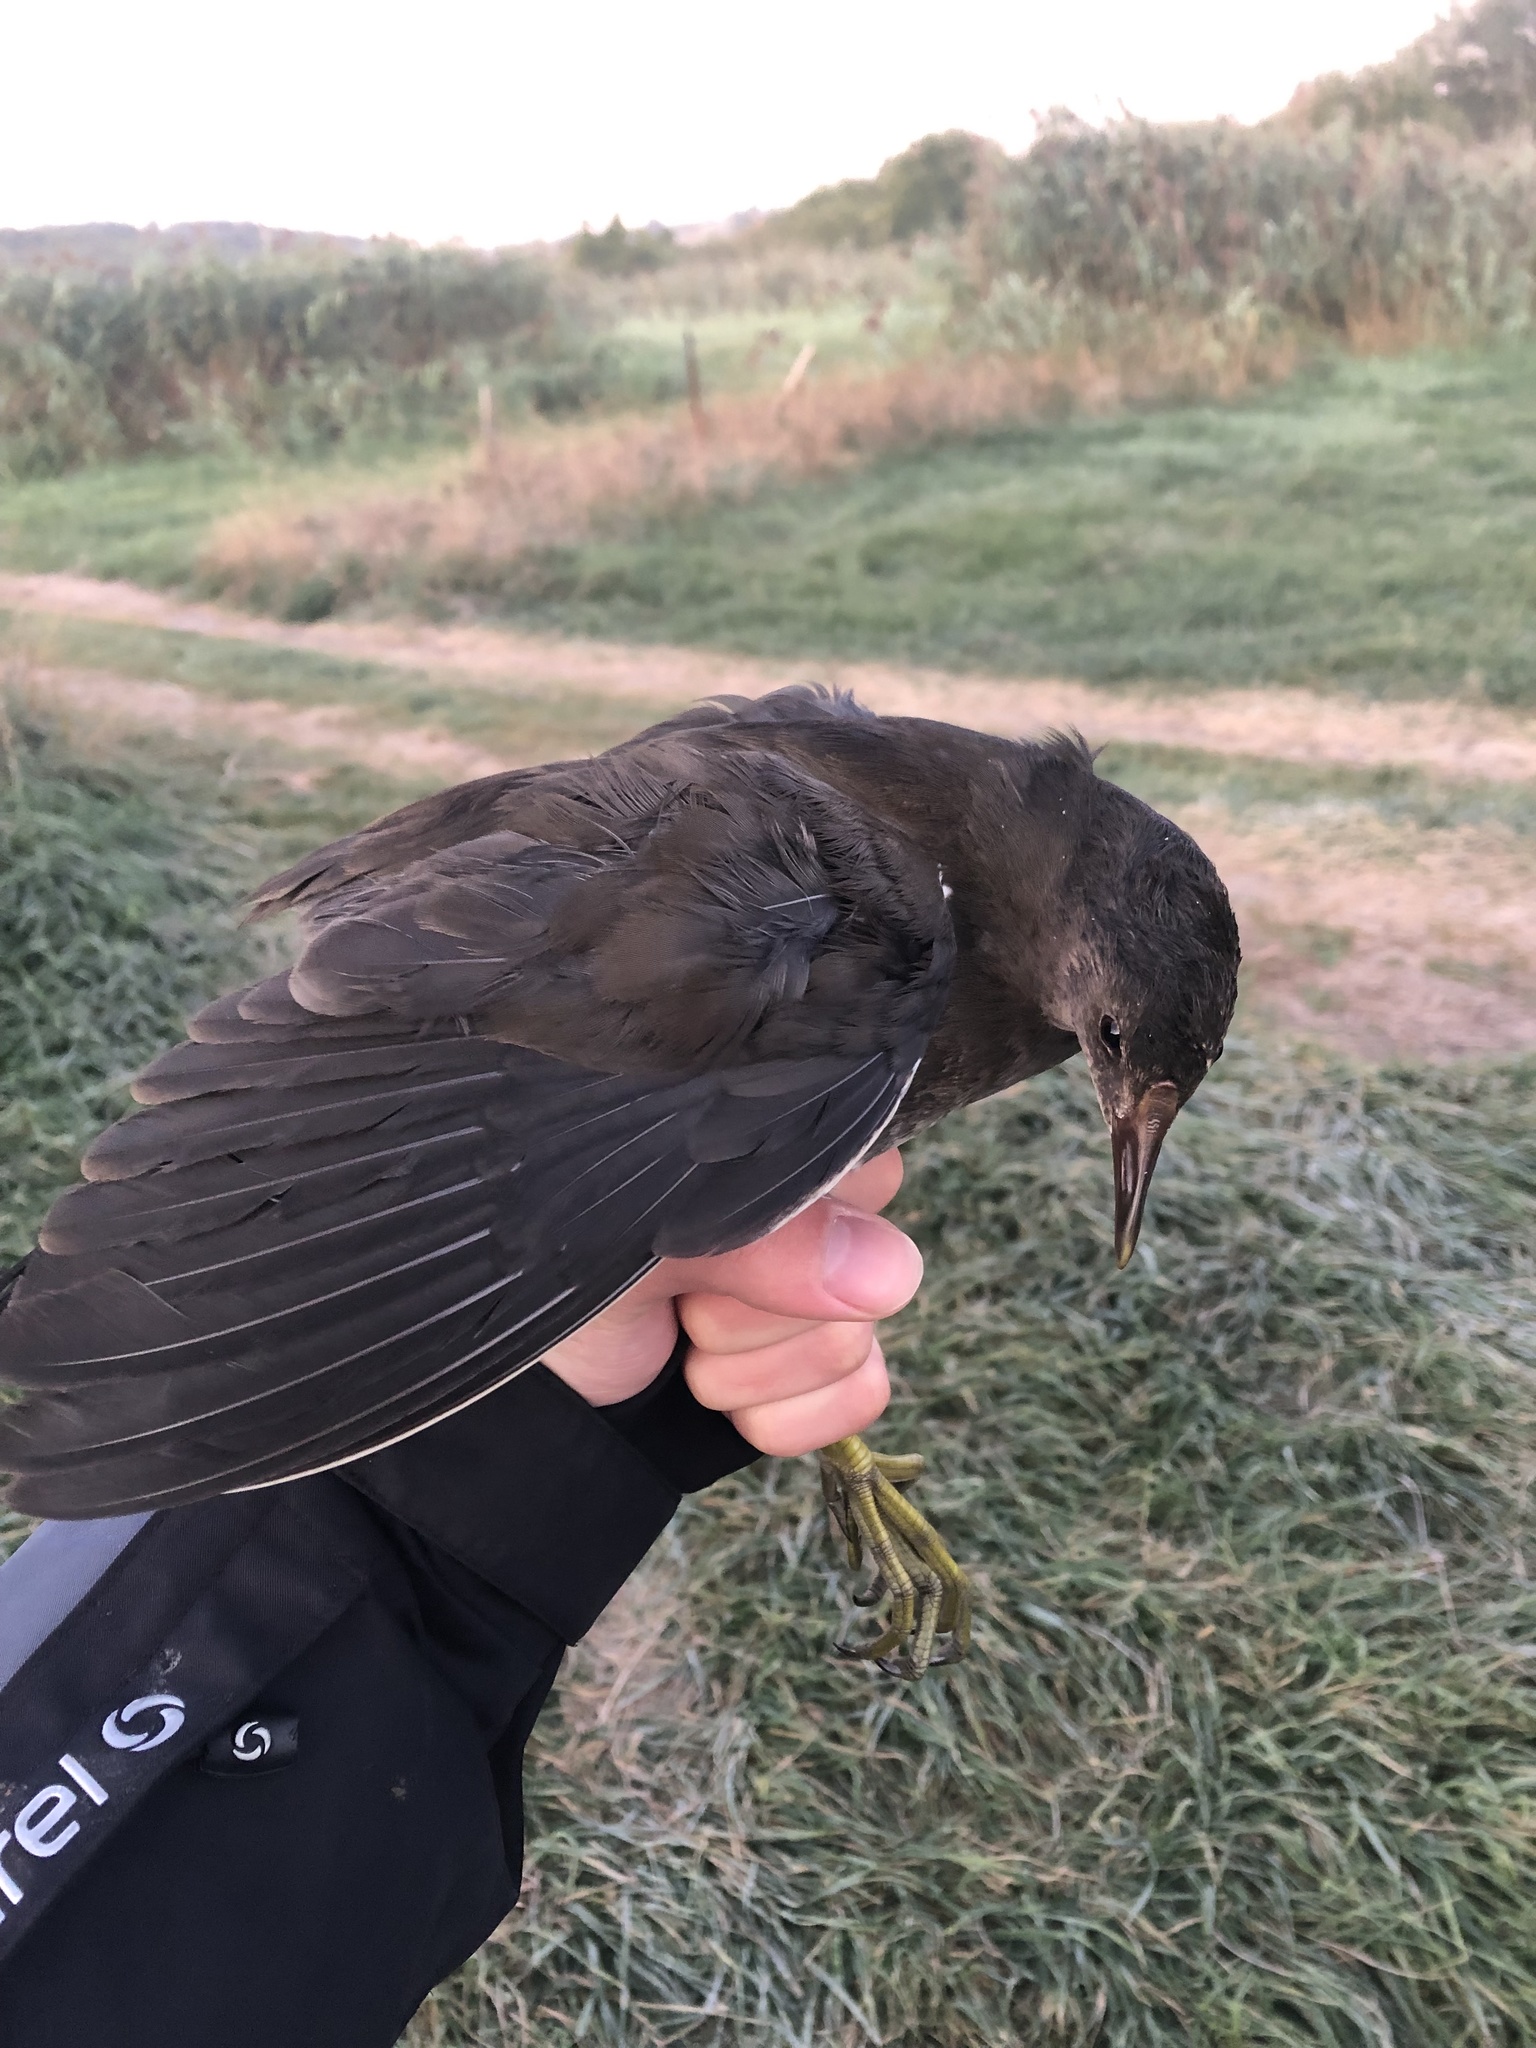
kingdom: Animalia
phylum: Chordata
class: Aves
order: Gruiformes
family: Rallidae
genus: Gallinula
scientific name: Gallinula chloropus
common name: Common moorhen
